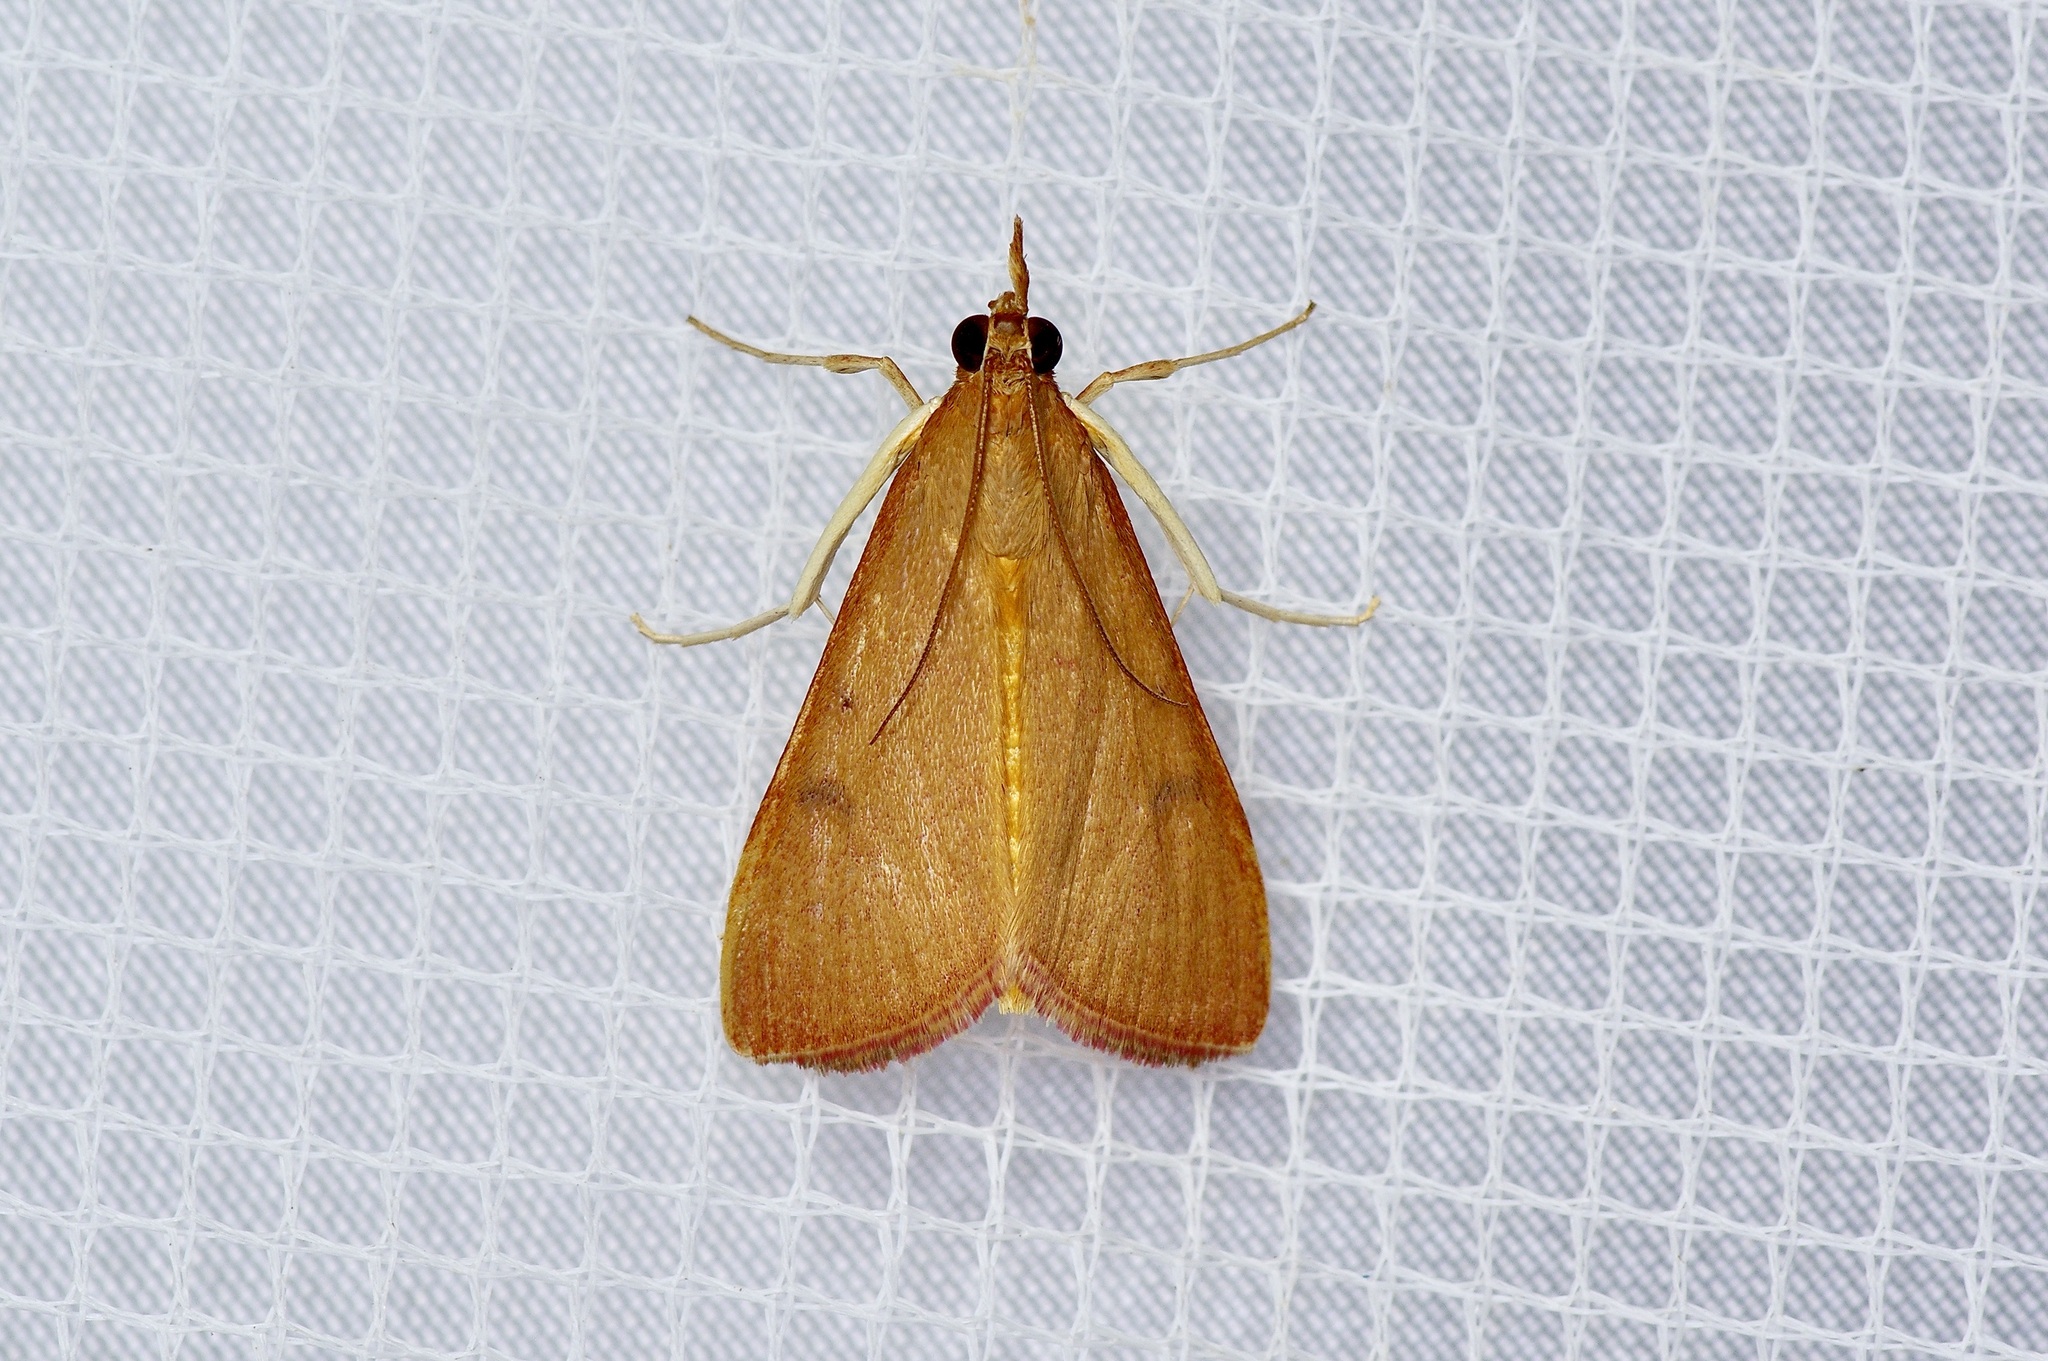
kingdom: Animalia
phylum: Arthropoda
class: Insecta
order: Lepidoptera
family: Crambidae
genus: Uresiphita
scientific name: Uresiphita reversalis
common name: Genista broom moth
